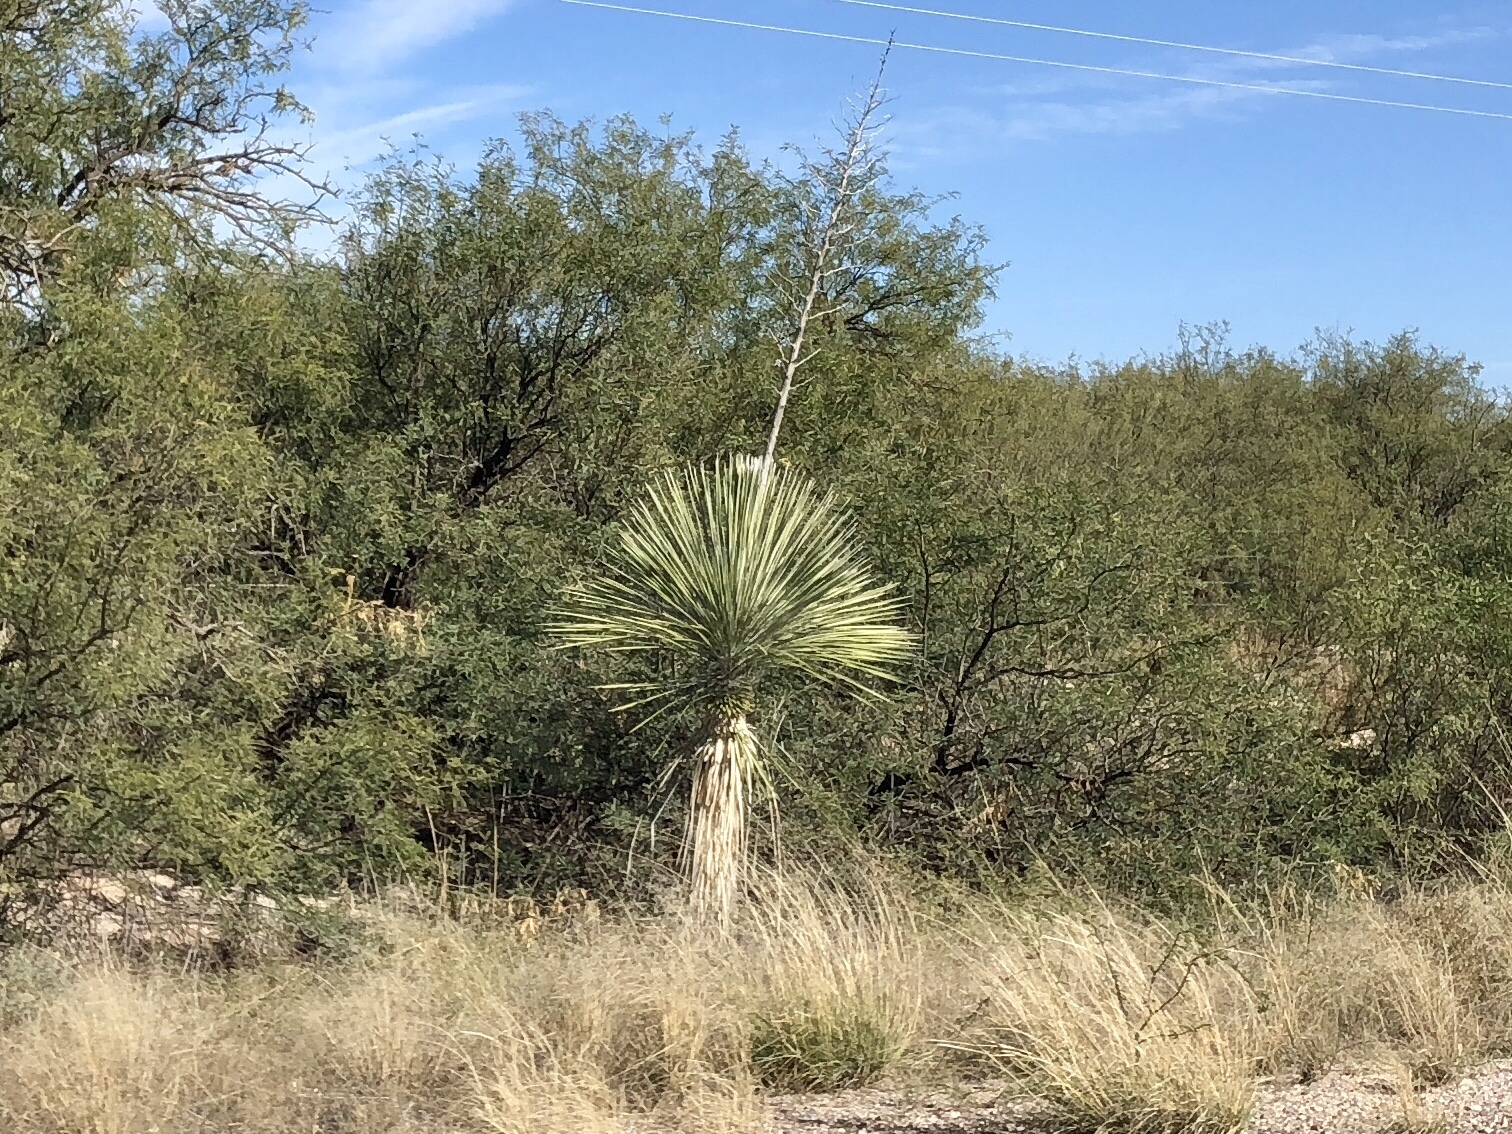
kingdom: Plantae
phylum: Tracheophyta
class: Liliopsida
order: Asparagales
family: Asparagaceae
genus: Yucca
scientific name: Yucca elata
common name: Palmella
